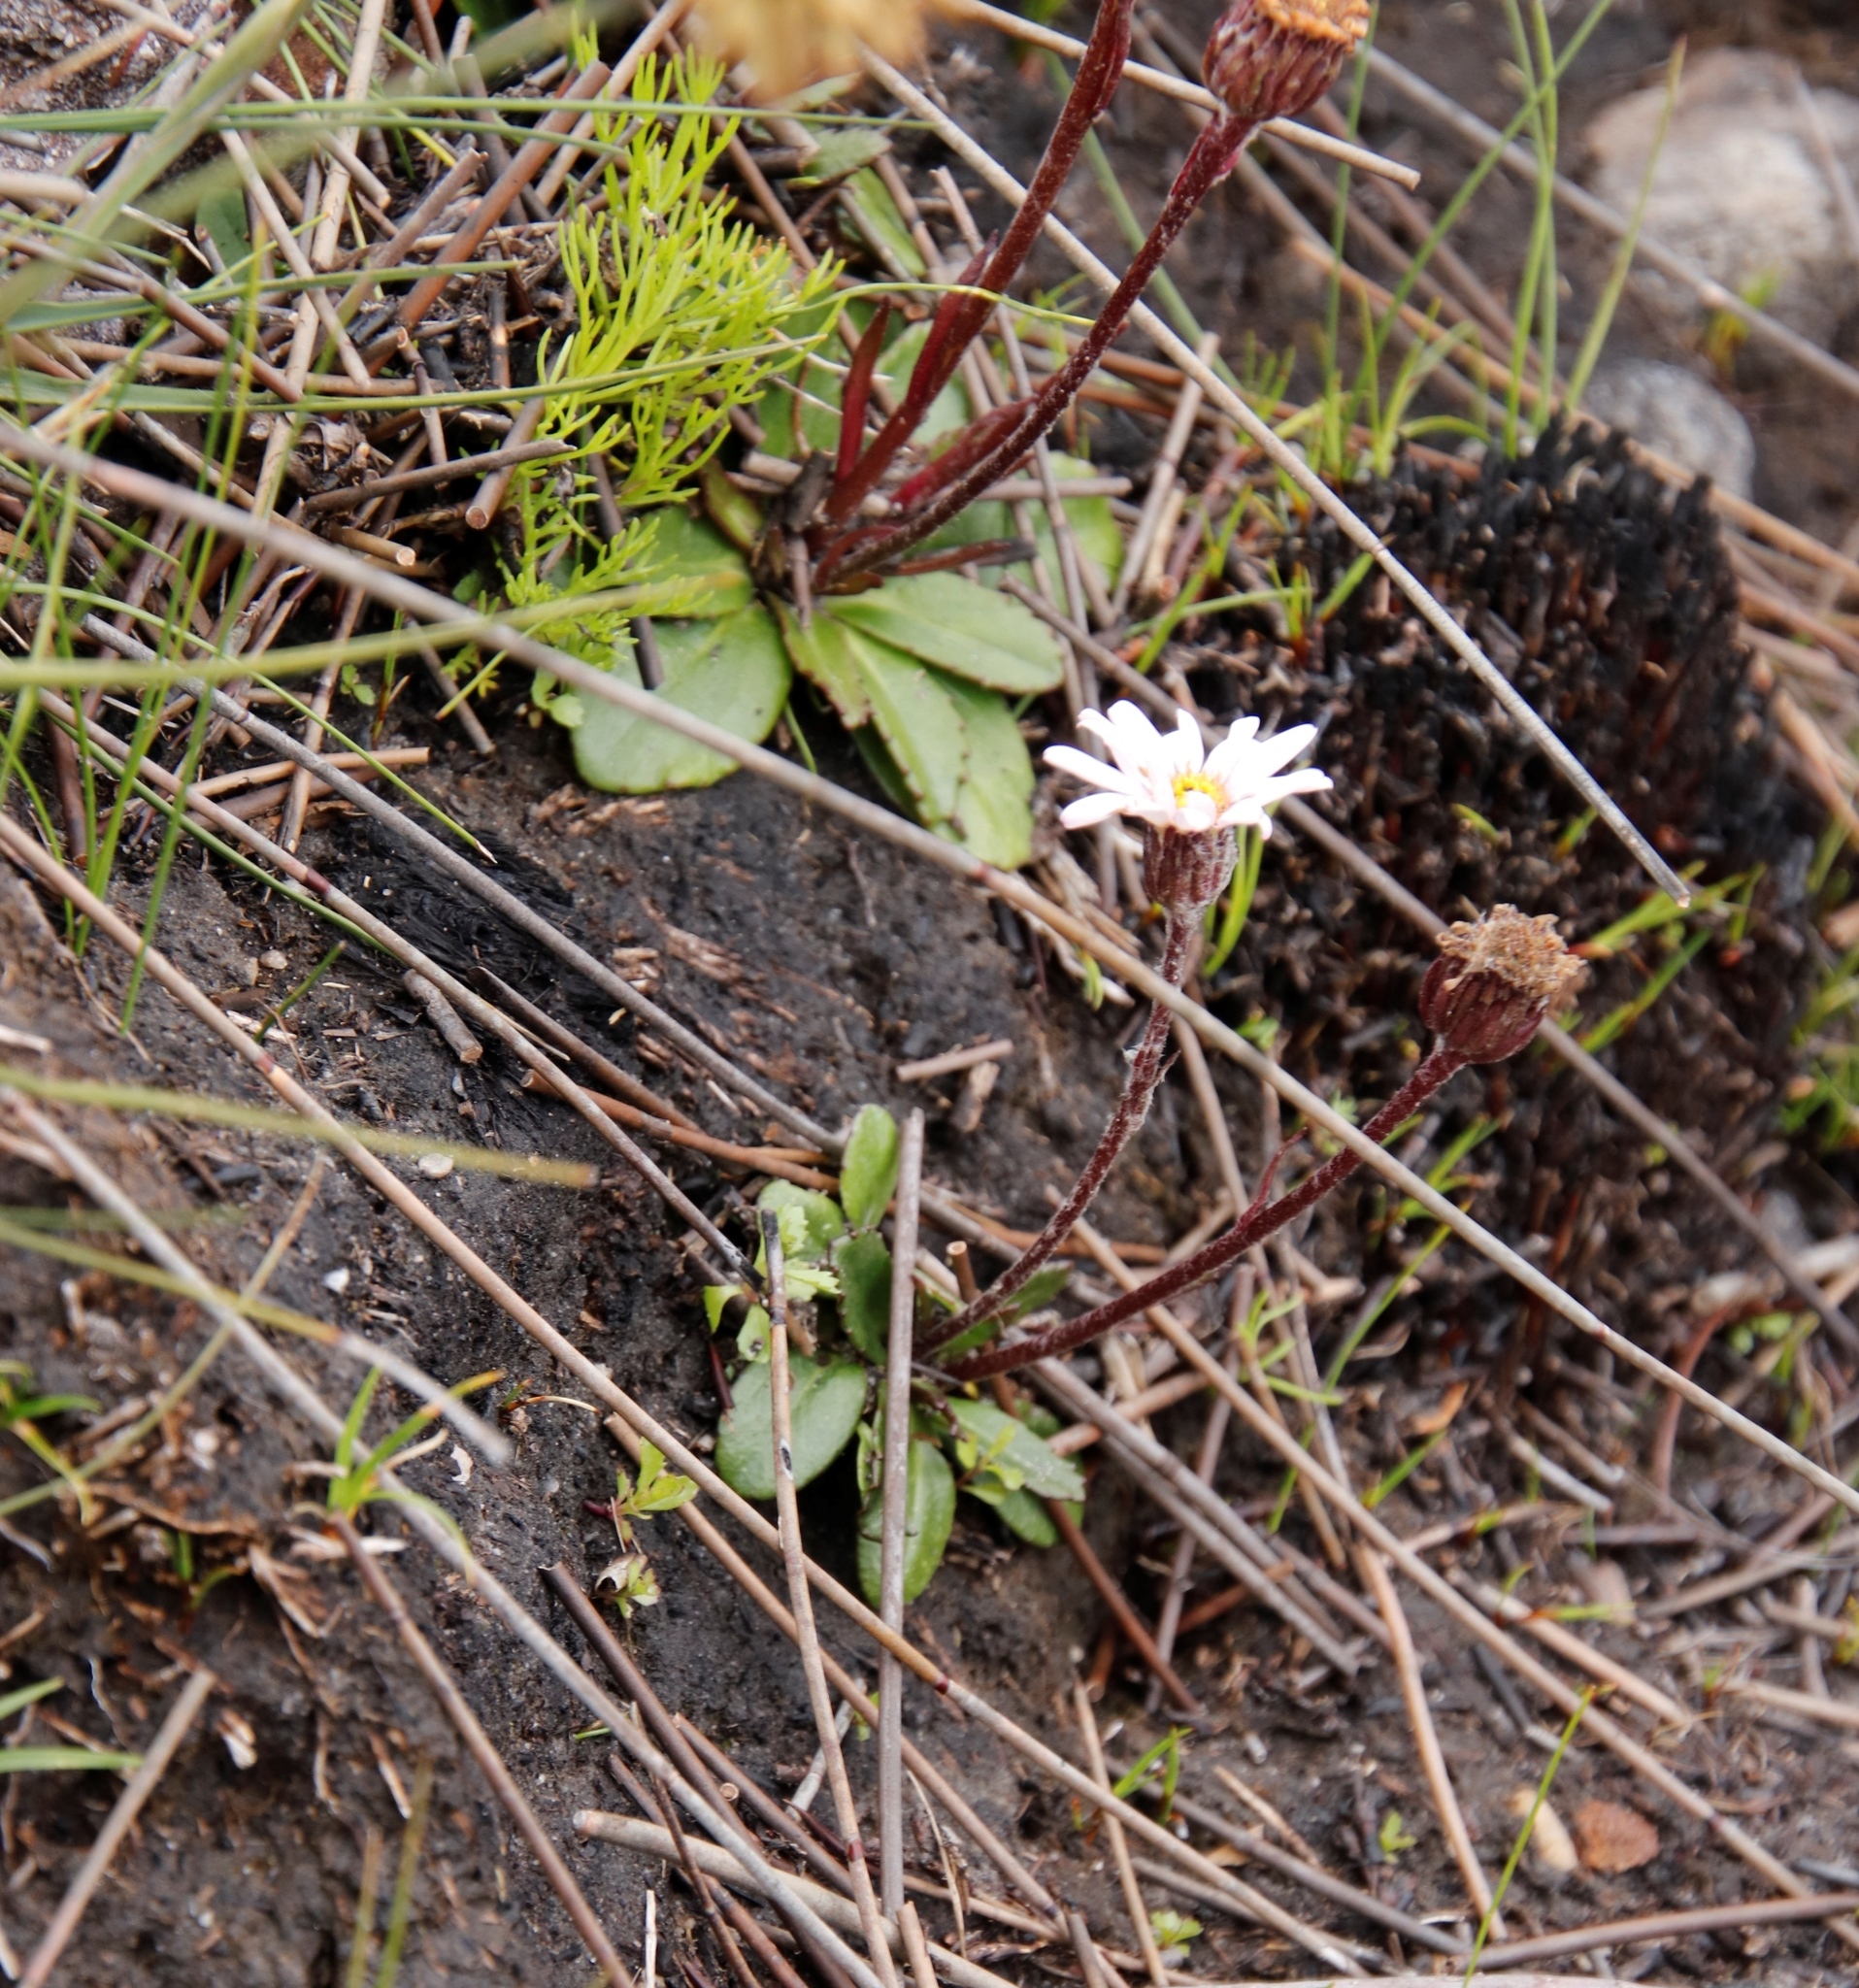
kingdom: Plantae
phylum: Tracheophyta
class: Magnoliopsida
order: Asterales
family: Asteraceae
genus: Zyrphelis
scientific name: Zyrphelis crenata
